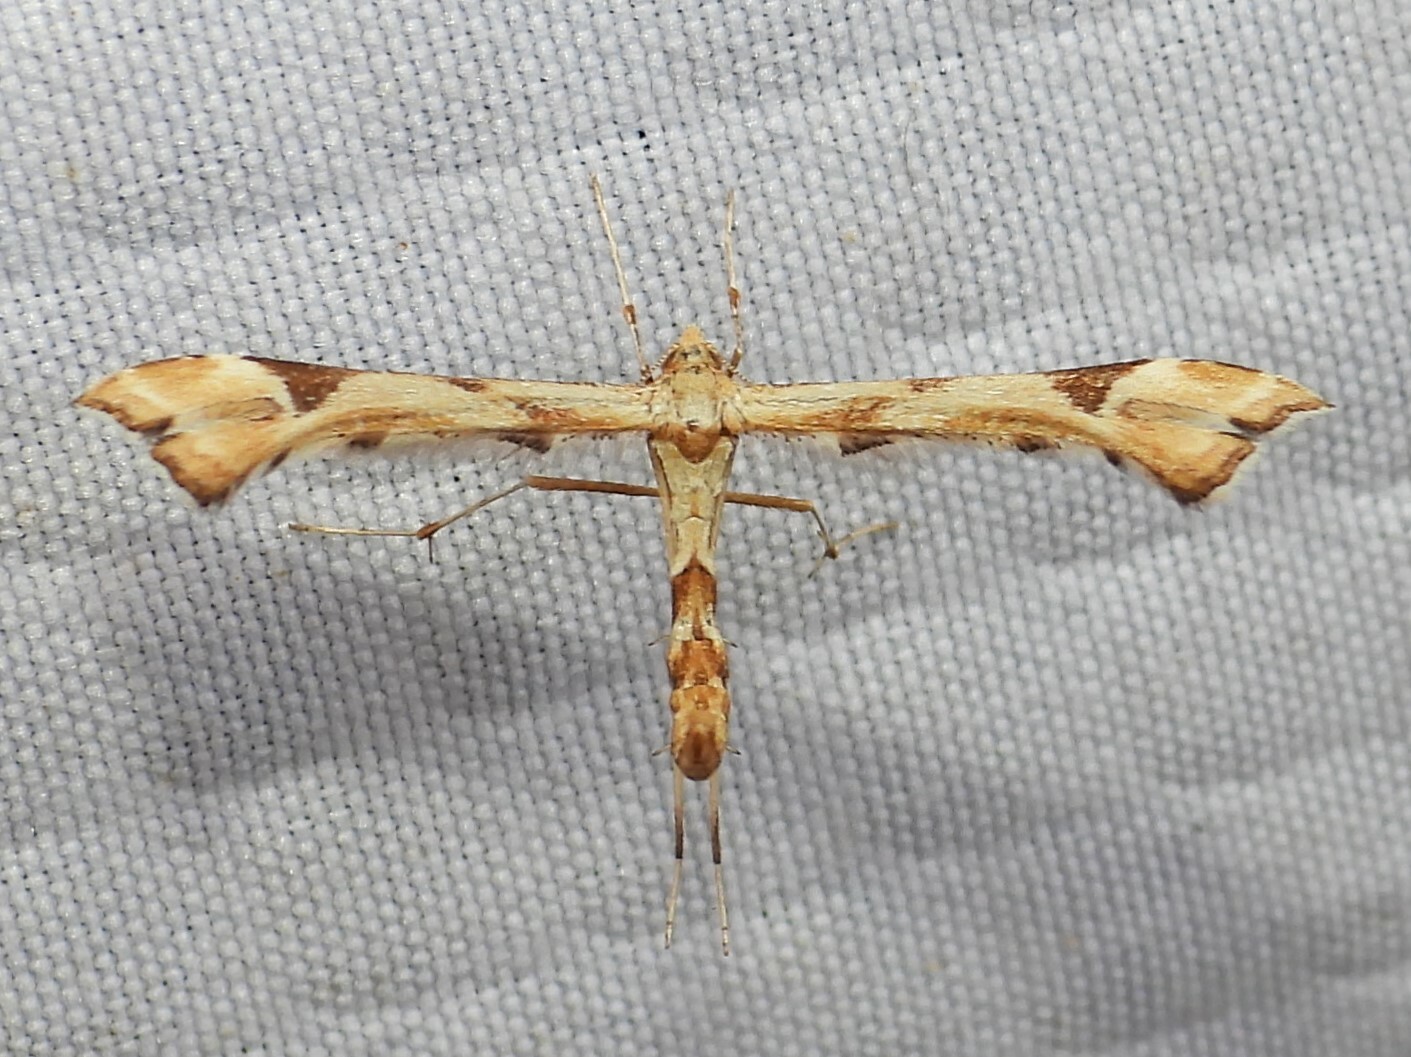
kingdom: Animalia
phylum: Arthropoda
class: Insecta
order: Lepidoptera
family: Pterophoridae
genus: Platyptilia
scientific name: Platyptilia carduidactylus
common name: Artichoke plume moth
